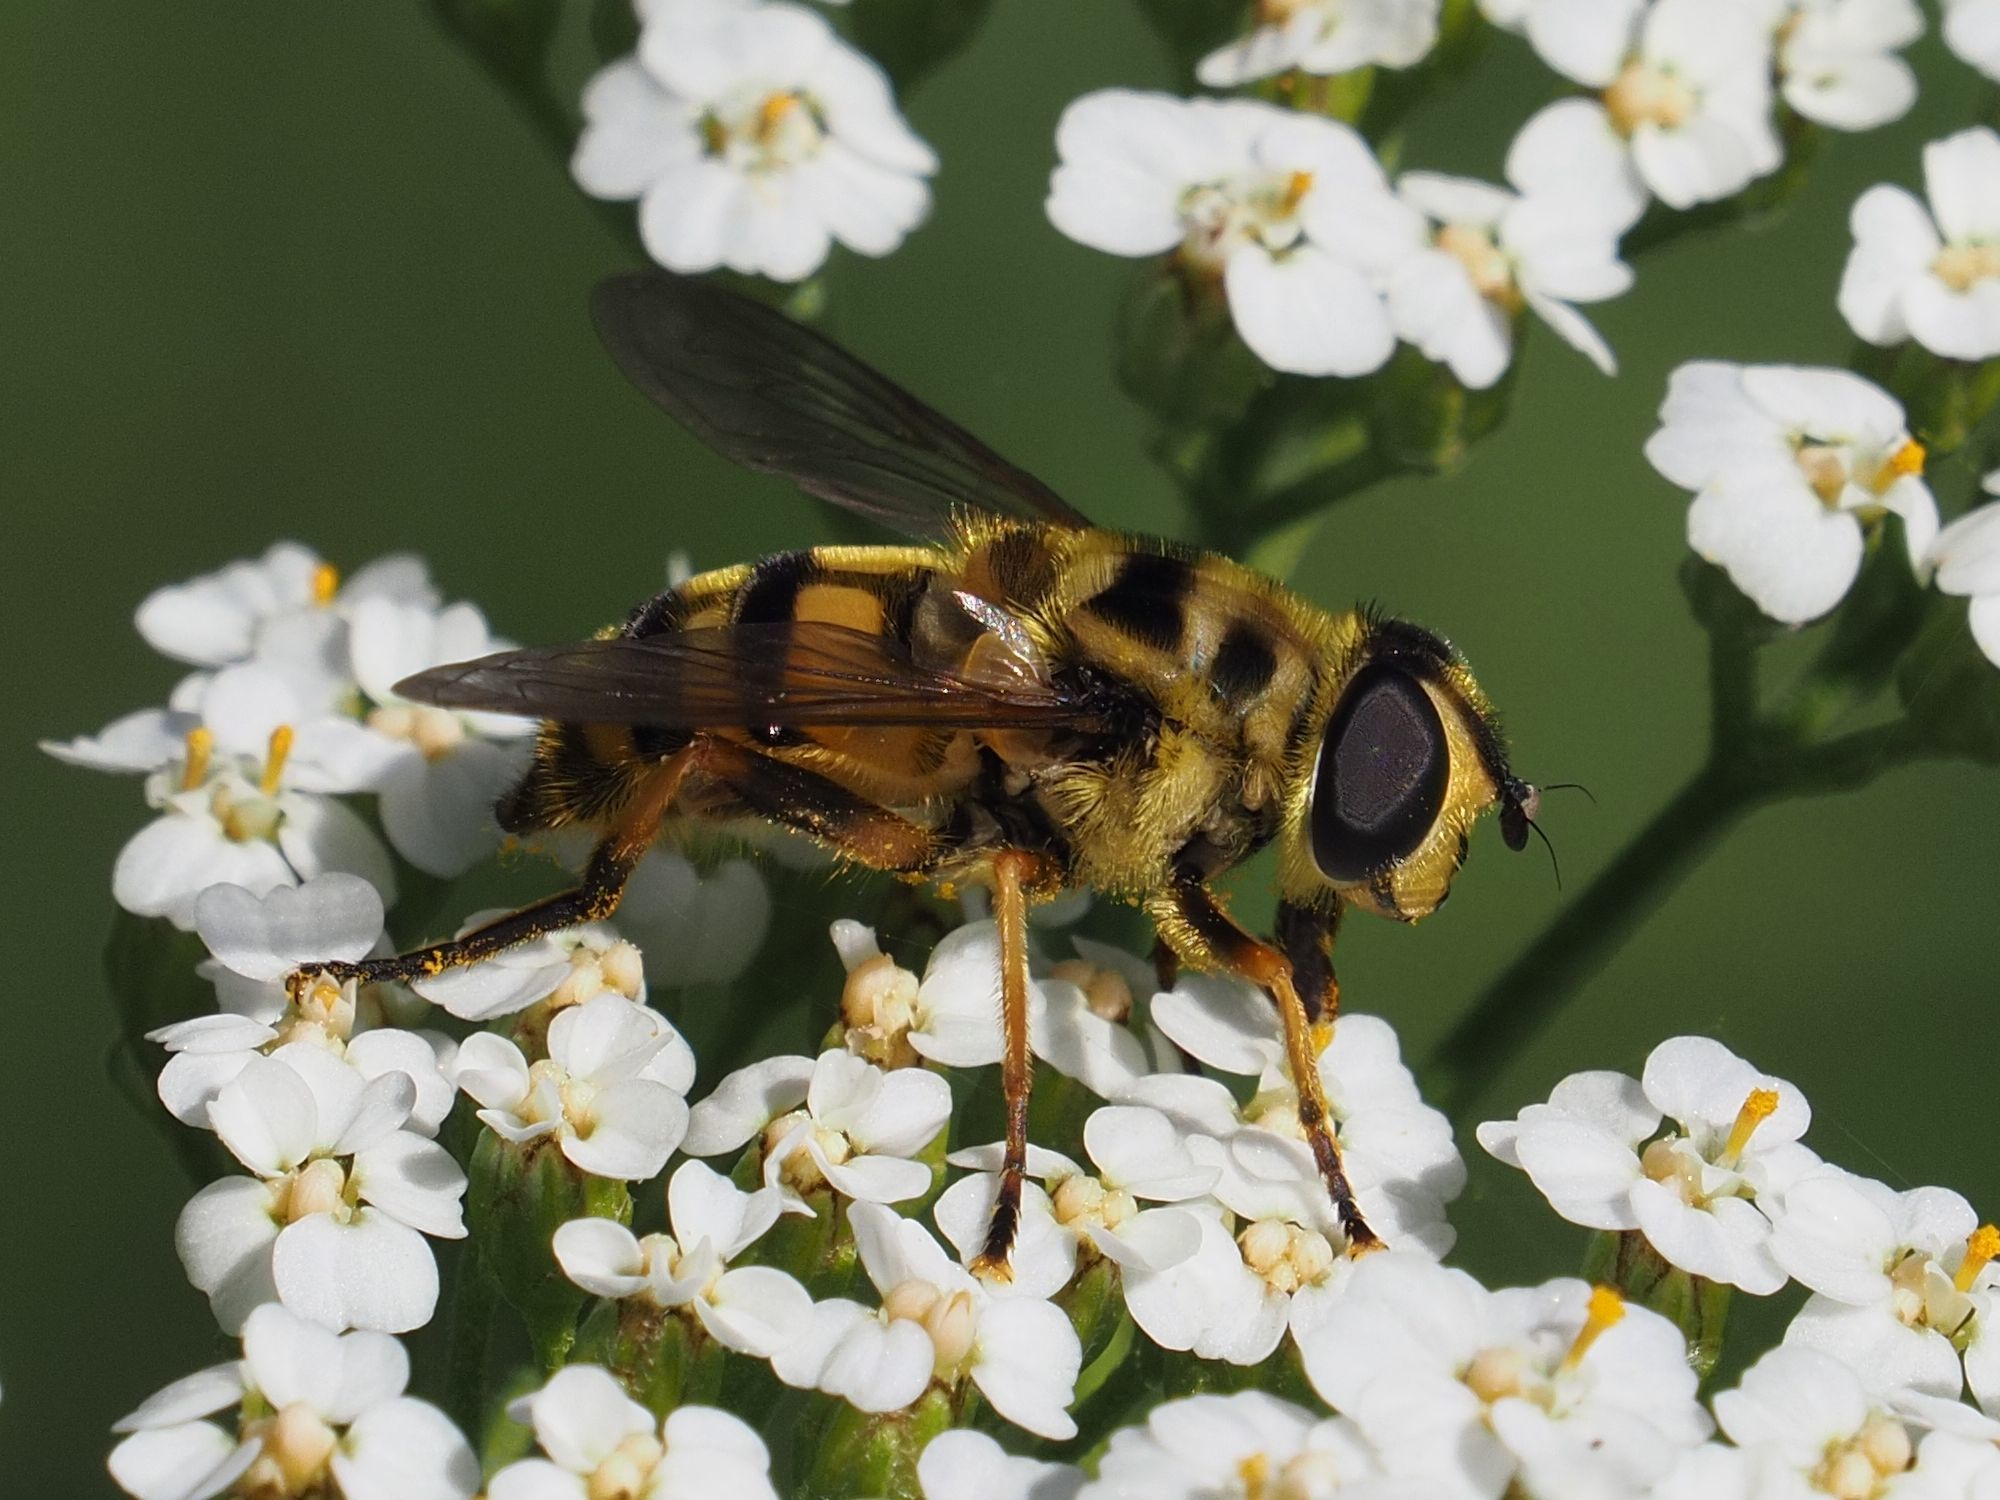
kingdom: Animalia
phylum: Arthropoda
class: Insecta
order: Diptera
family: Syrphidae
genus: Myathropa
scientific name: Myathropa florea
